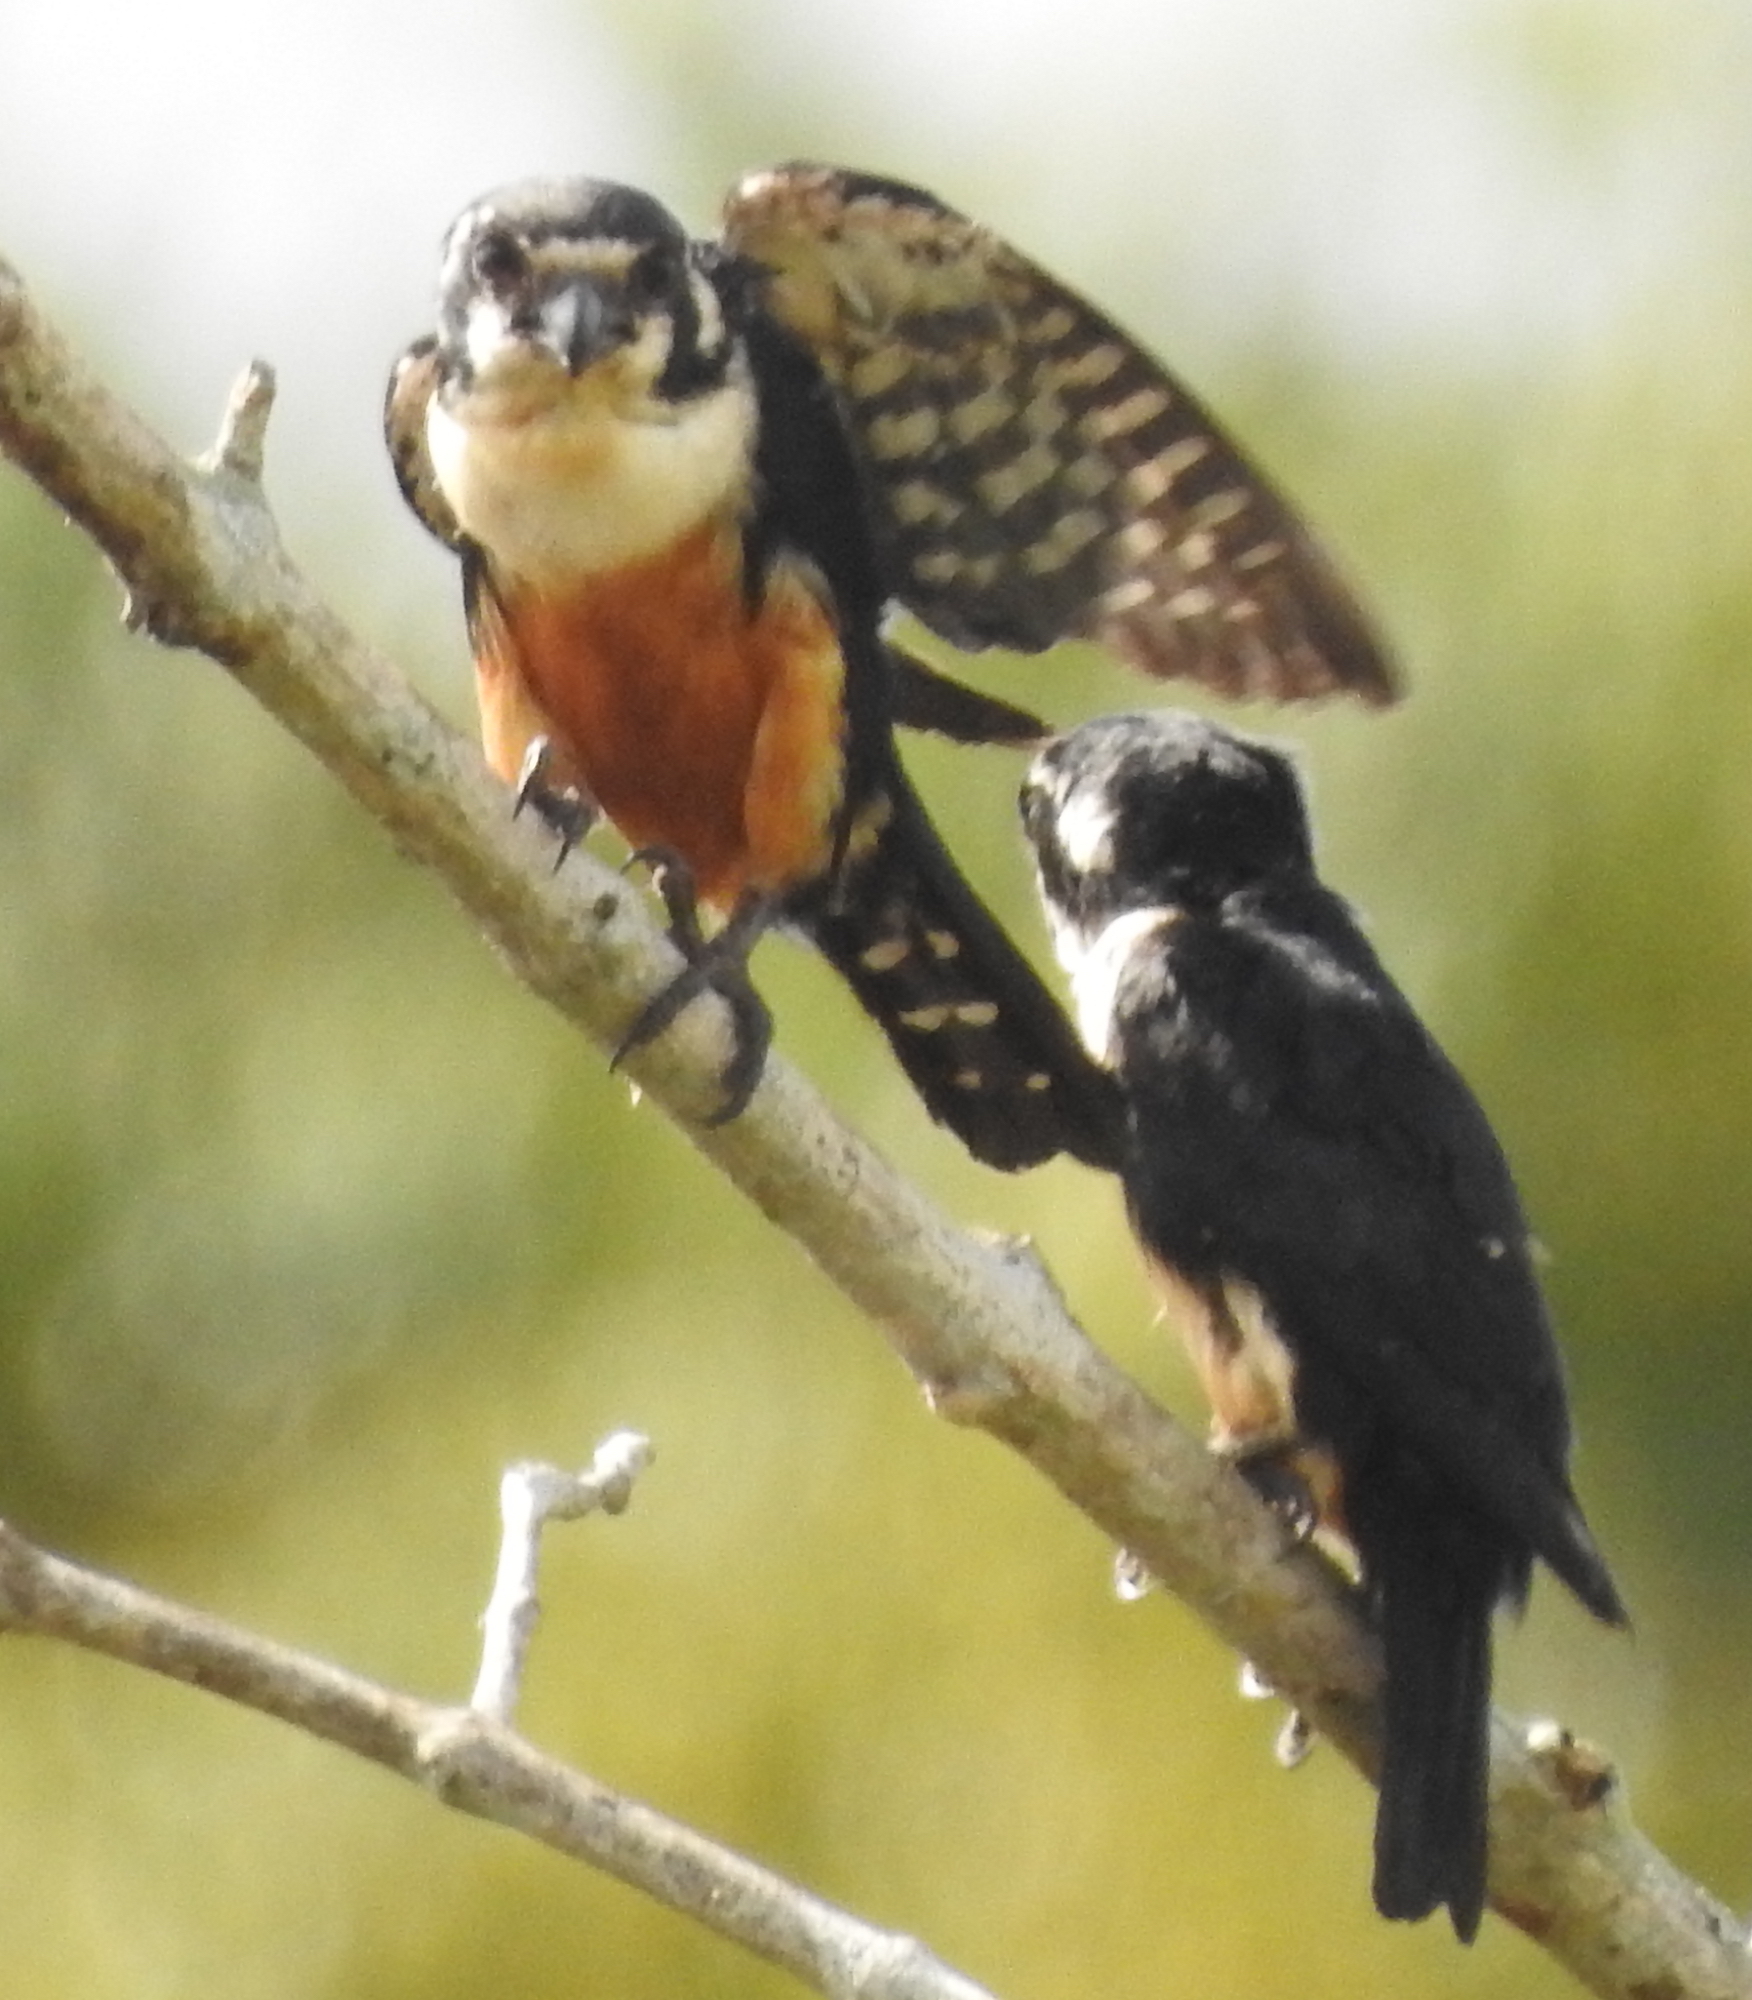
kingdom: Animalia
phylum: Chordata
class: Aves
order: Falconiformes
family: Falconidae
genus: Microhierax
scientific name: Microhierax fringillarius
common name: Black-thighed falconet
